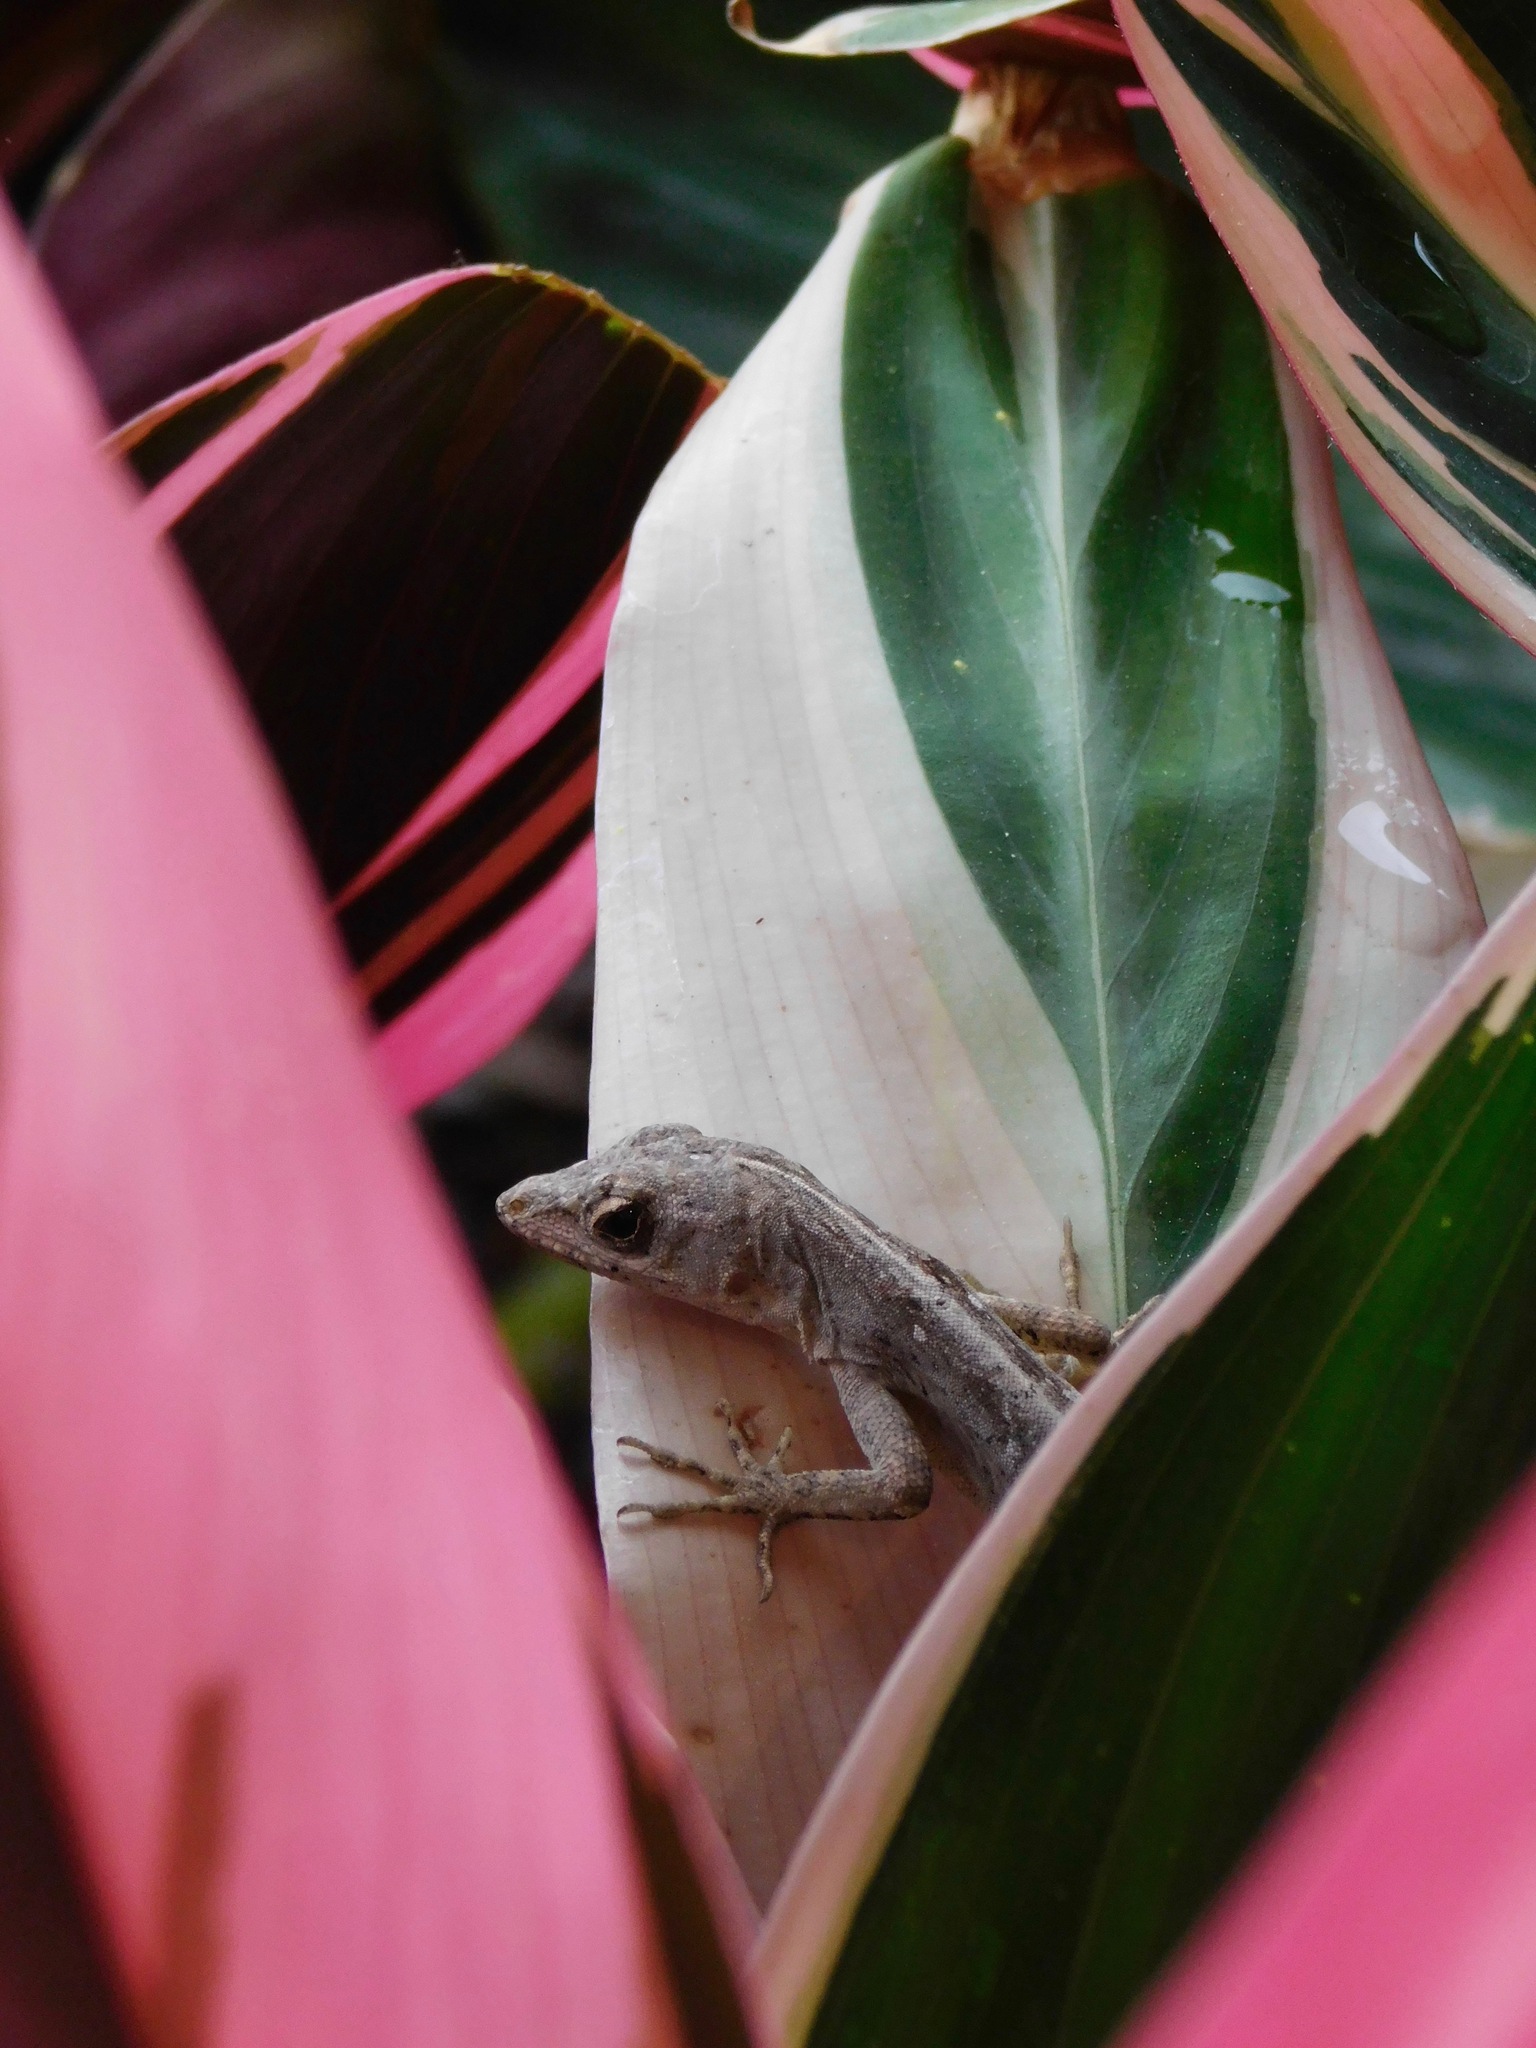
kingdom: Animalia
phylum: Chordata
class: Squamata
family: Dactyloidae
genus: Anolis
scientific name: Anolis sagrei
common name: Brown anole
